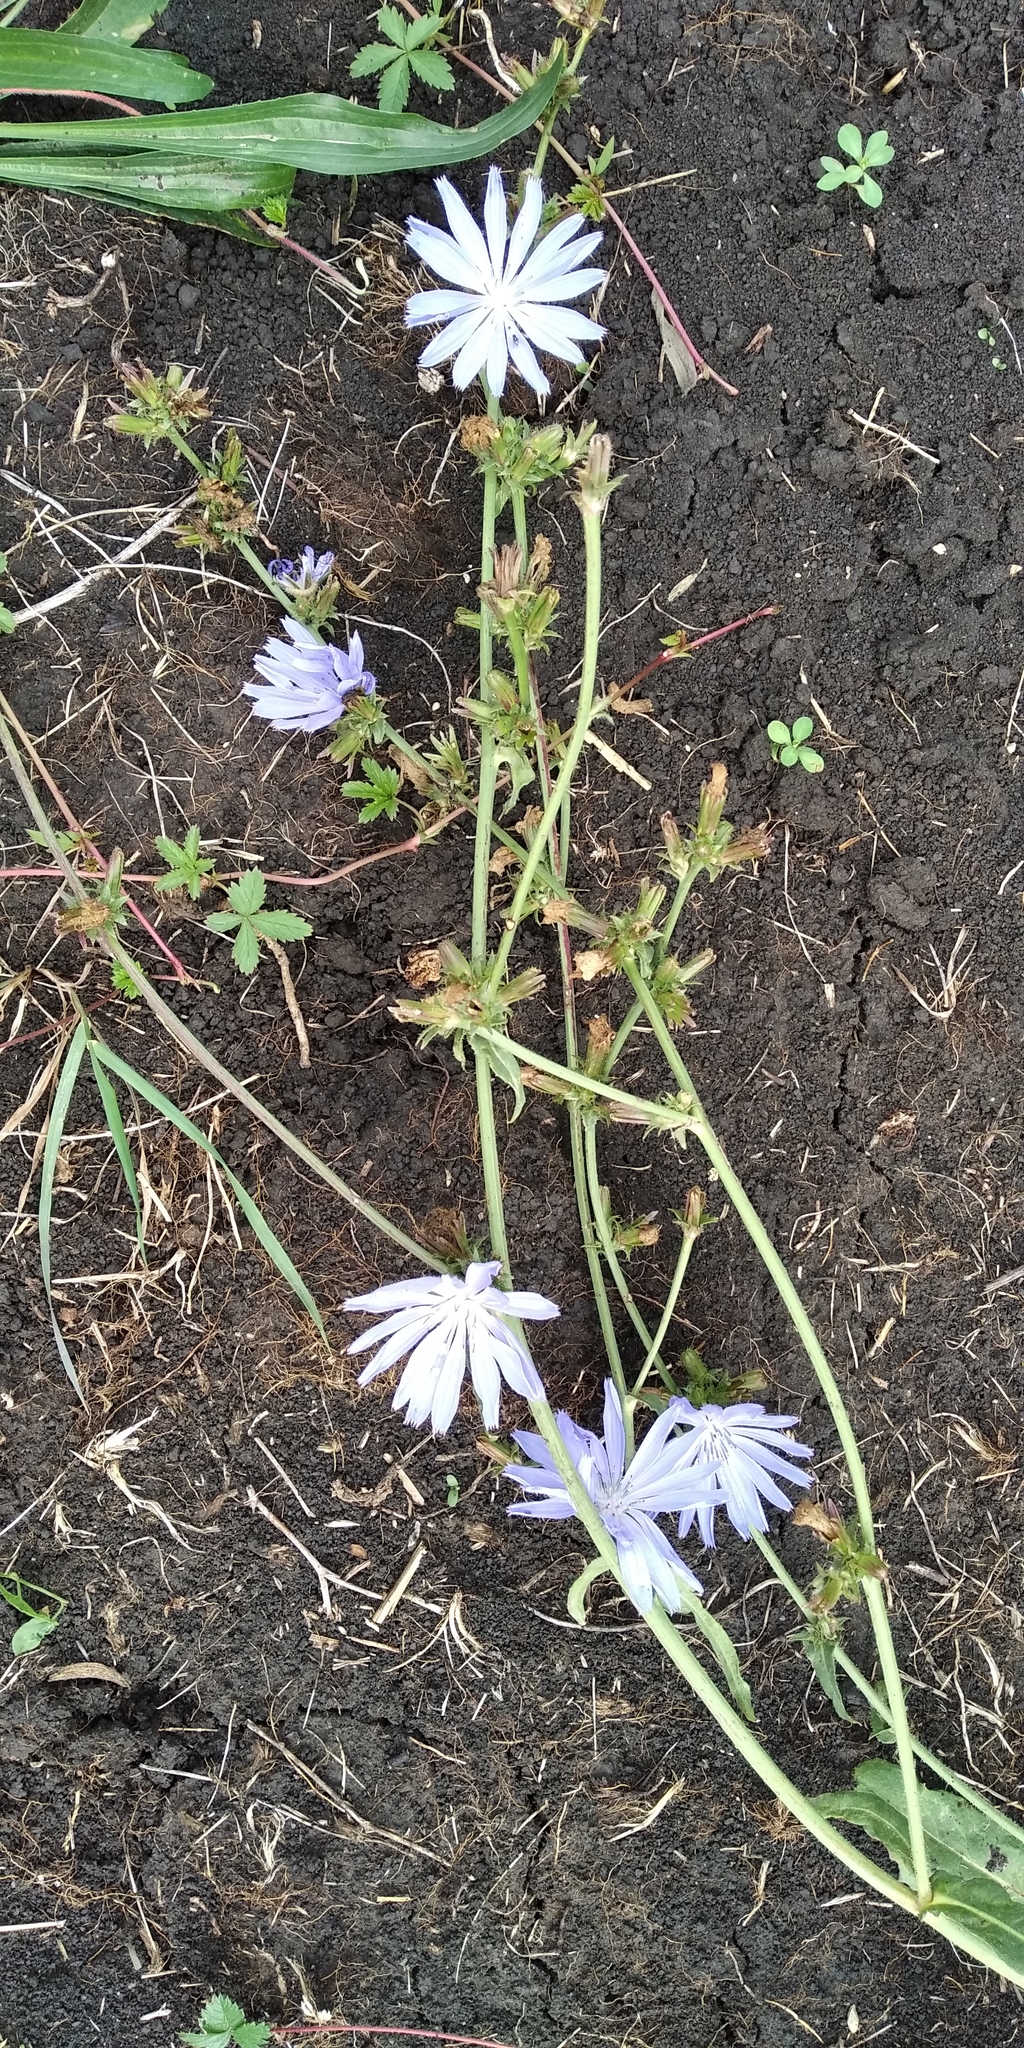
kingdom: Plantae
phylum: Tracheophyta
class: Magnoliopsida
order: Asterales
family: Asteraceae
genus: Cichorium
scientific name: Cichorium intybus
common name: Chicory
